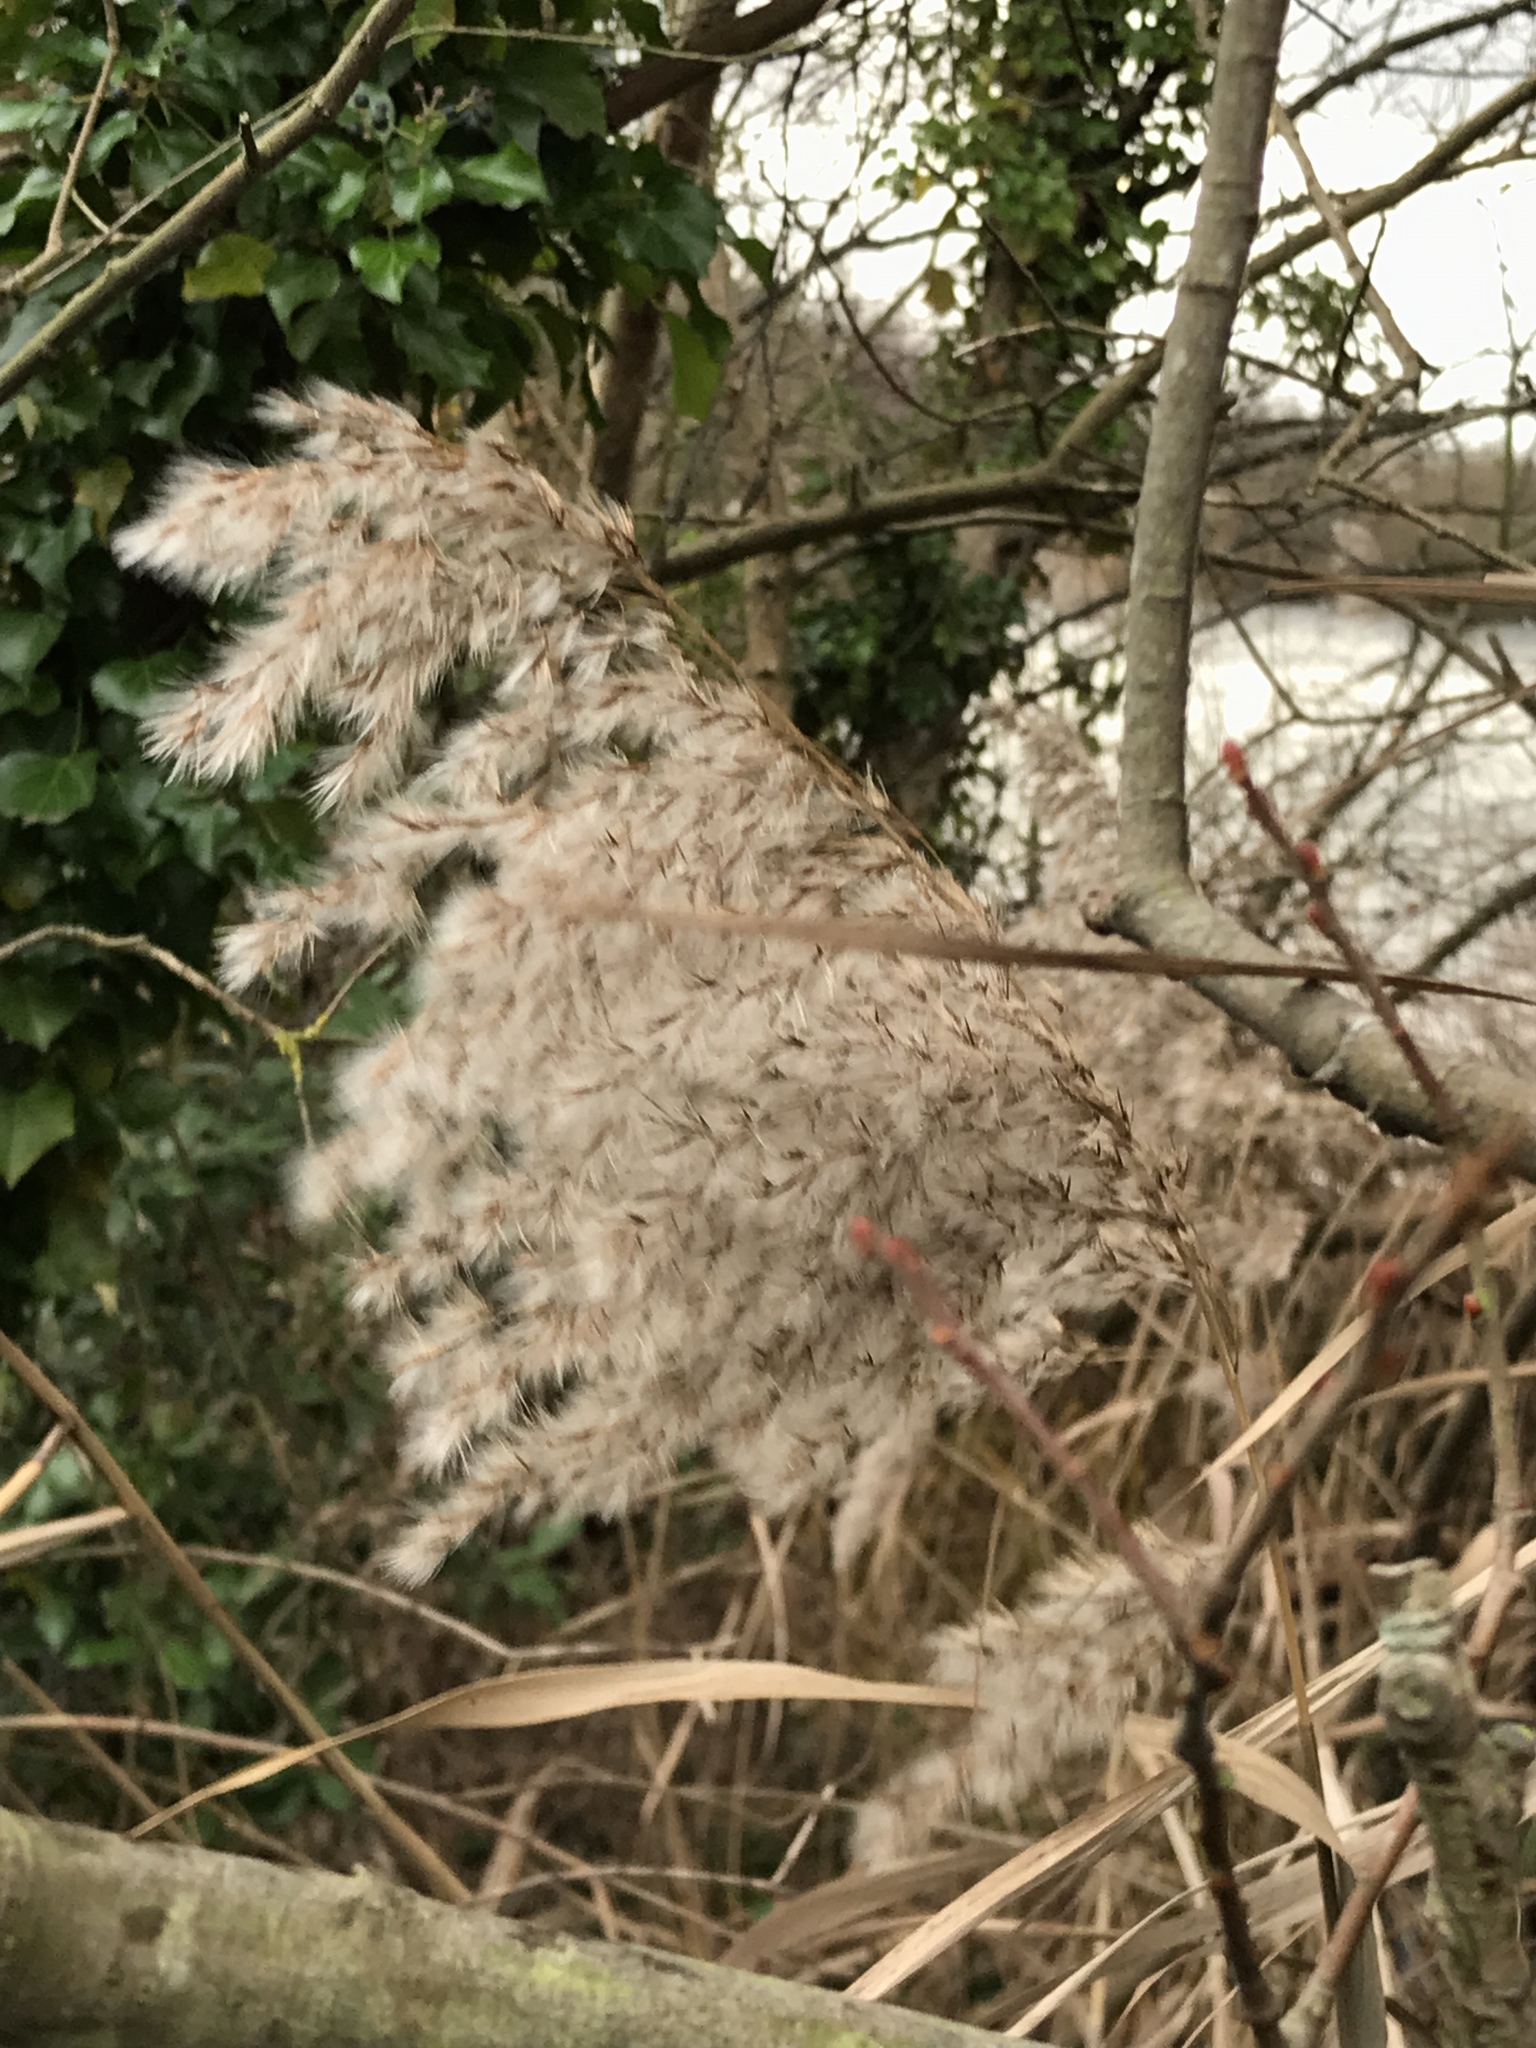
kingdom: Plantae
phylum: Tracheophyta
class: Liliopsida
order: Poales
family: Poaceae
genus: Phragmites
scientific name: Phragmites australis
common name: Common reed
